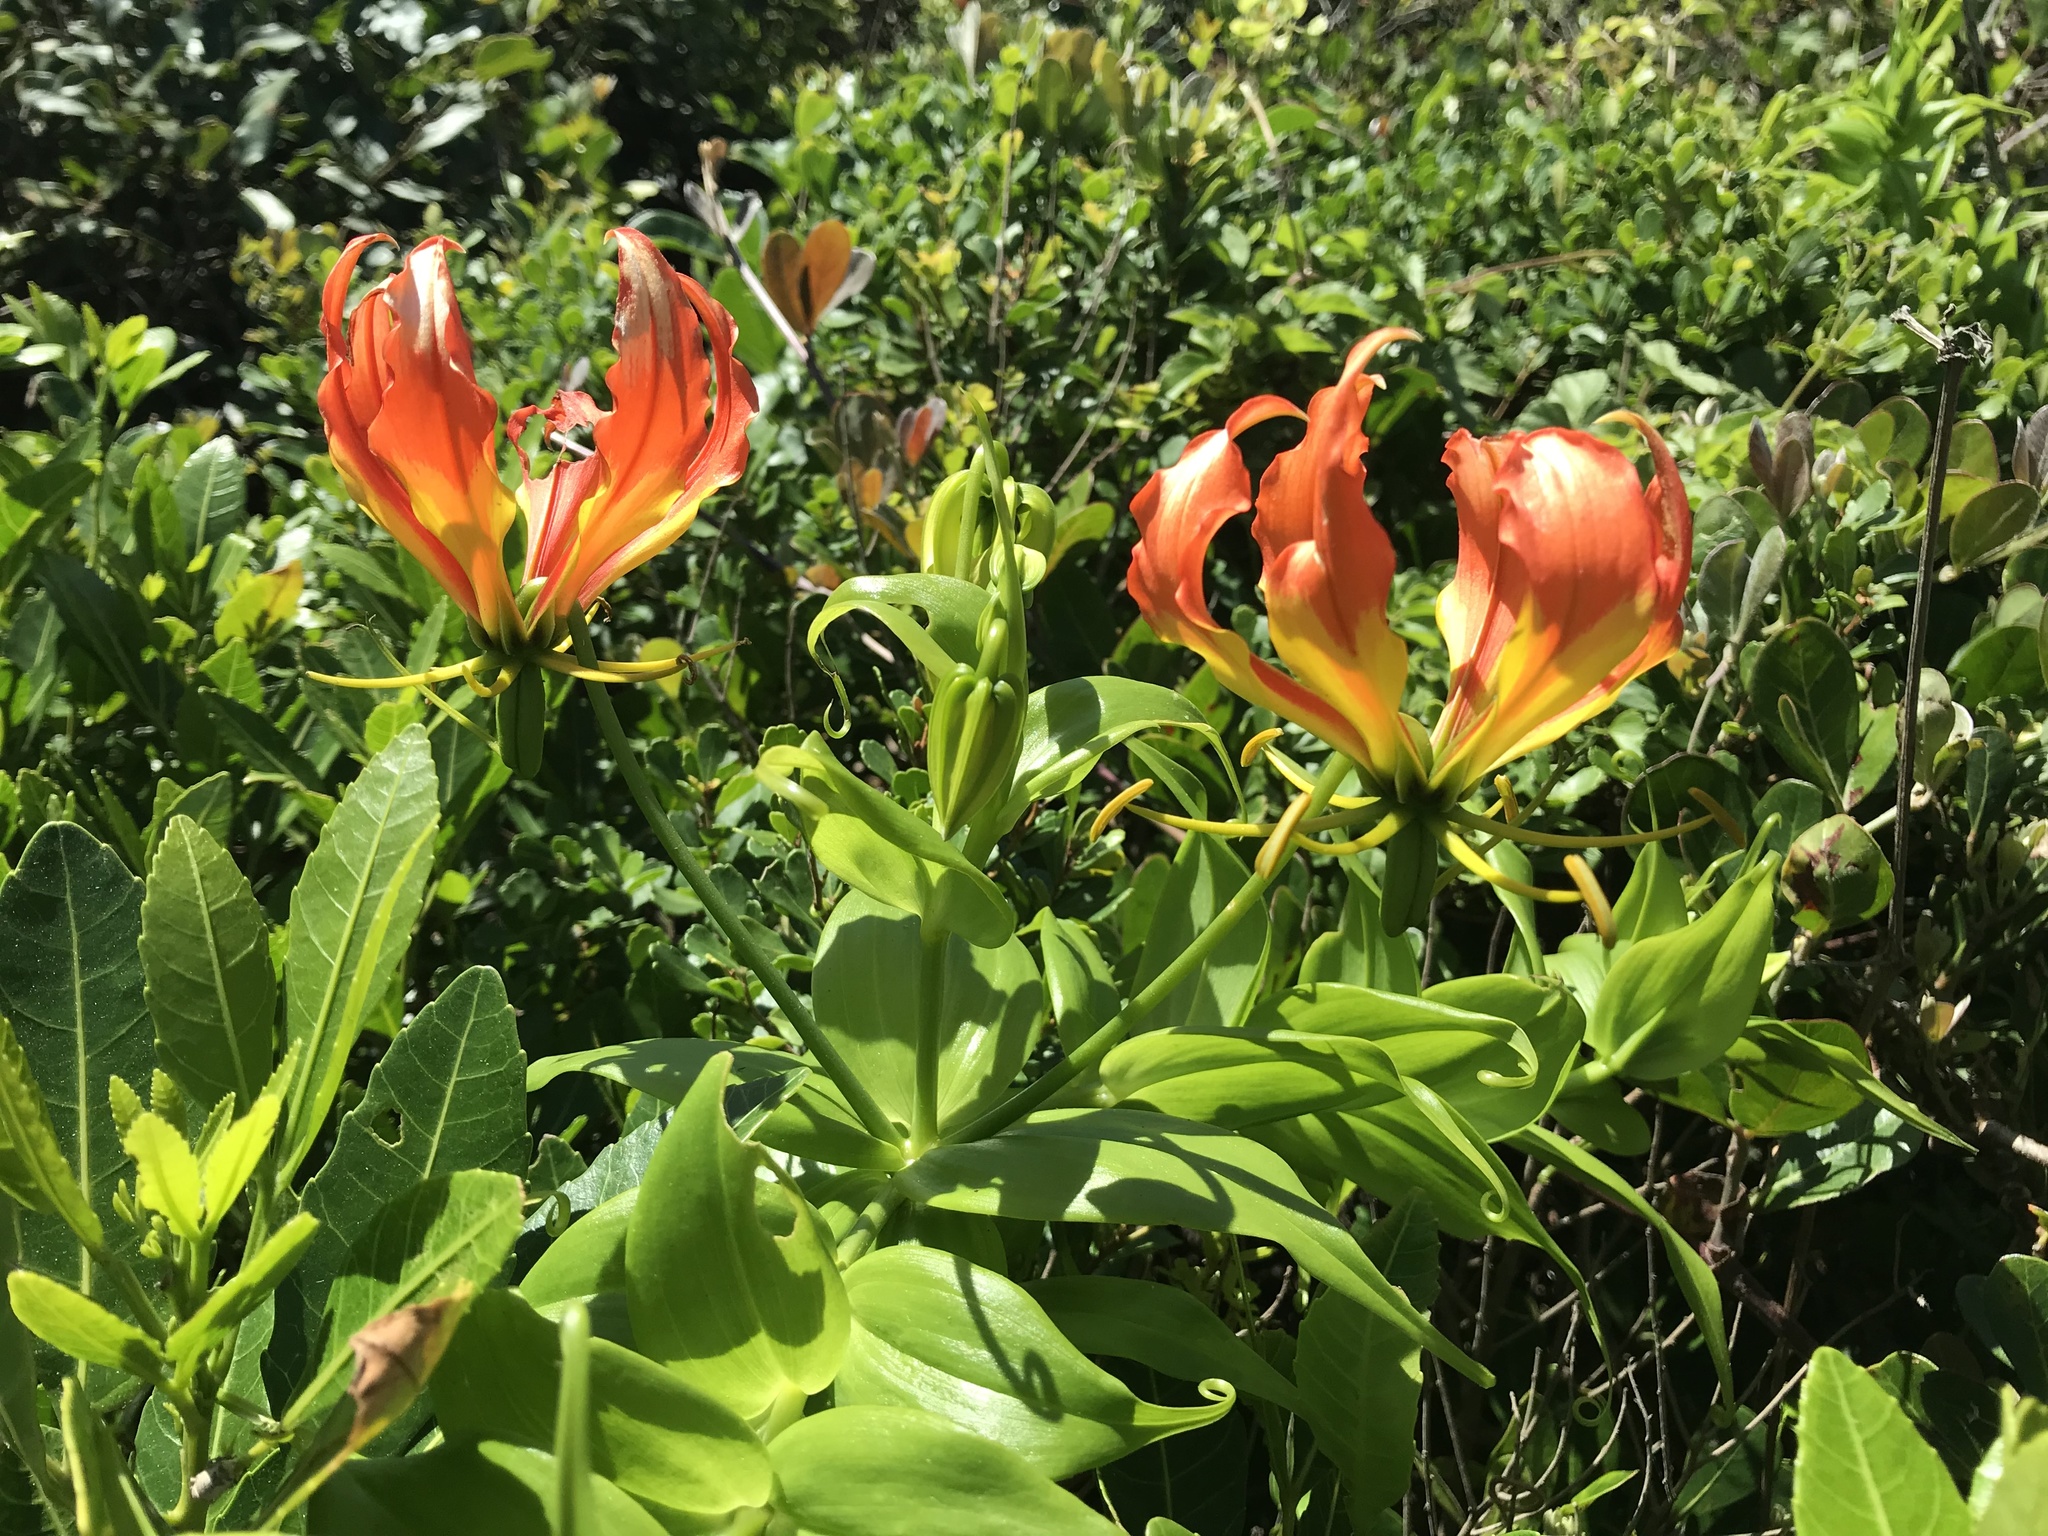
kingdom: Plantae
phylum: Tracheophyta
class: Liliopsida
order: Liliales
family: Colchicaceae
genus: Gloriosa
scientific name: Gloriosa superba
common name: Flame lily
